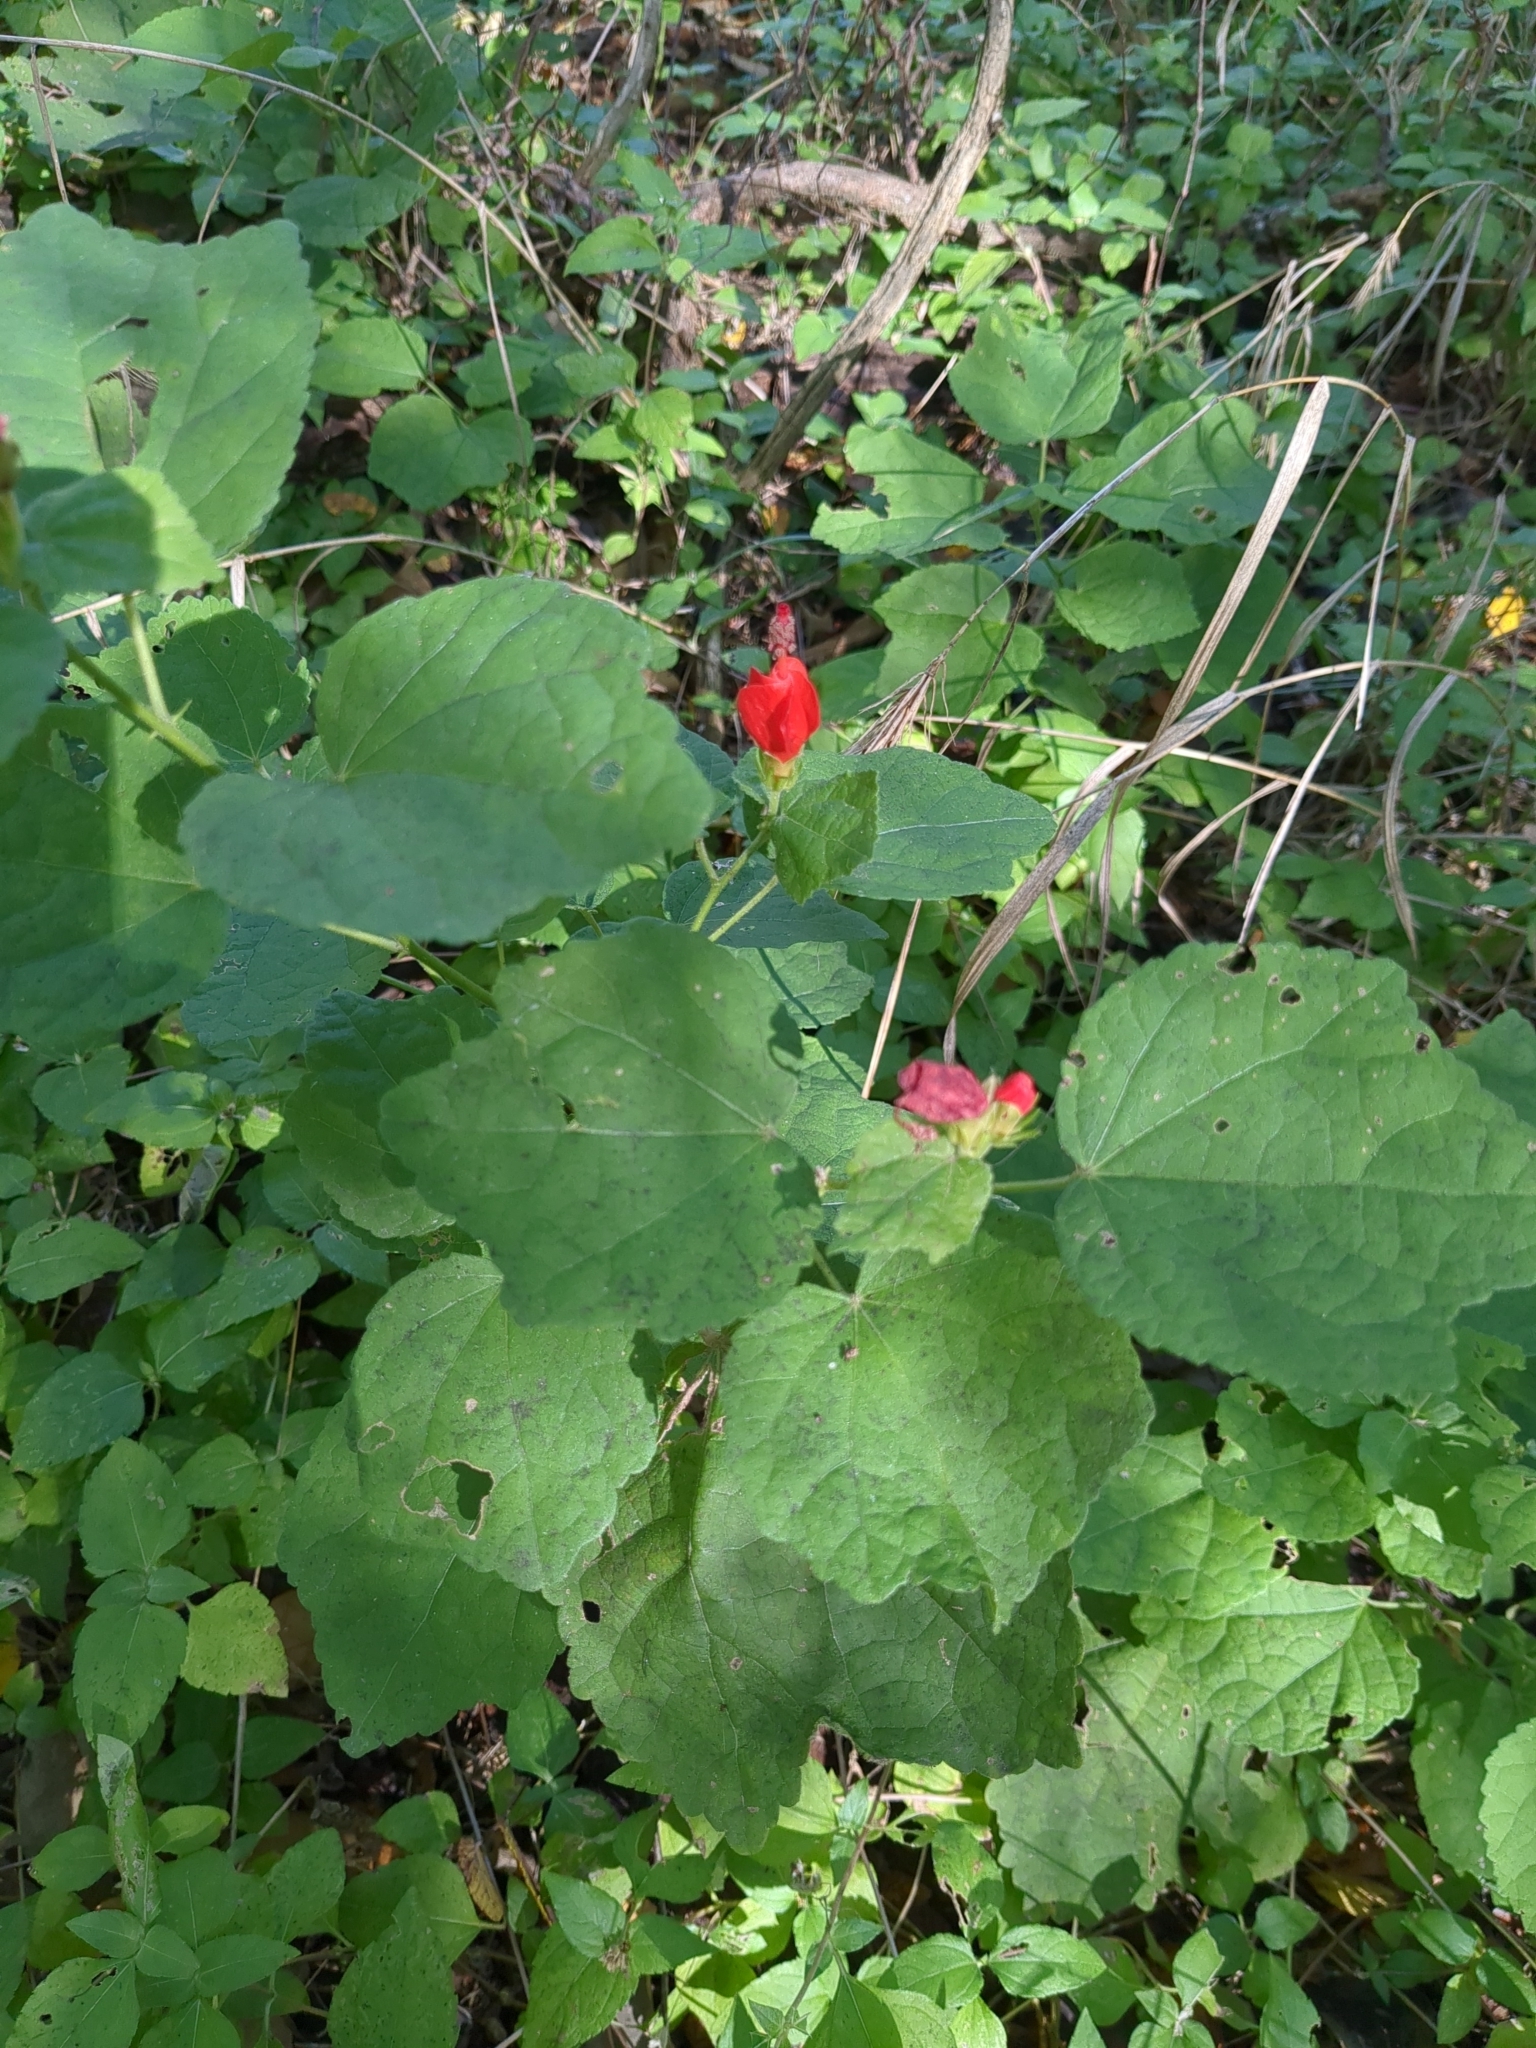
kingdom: Plantae
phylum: Tracheophyta
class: Magnoliopsida
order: Malvales
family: Malvaceae
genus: Malvaviscus
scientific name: Malvaviscus arboreus
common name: Wax mallow
